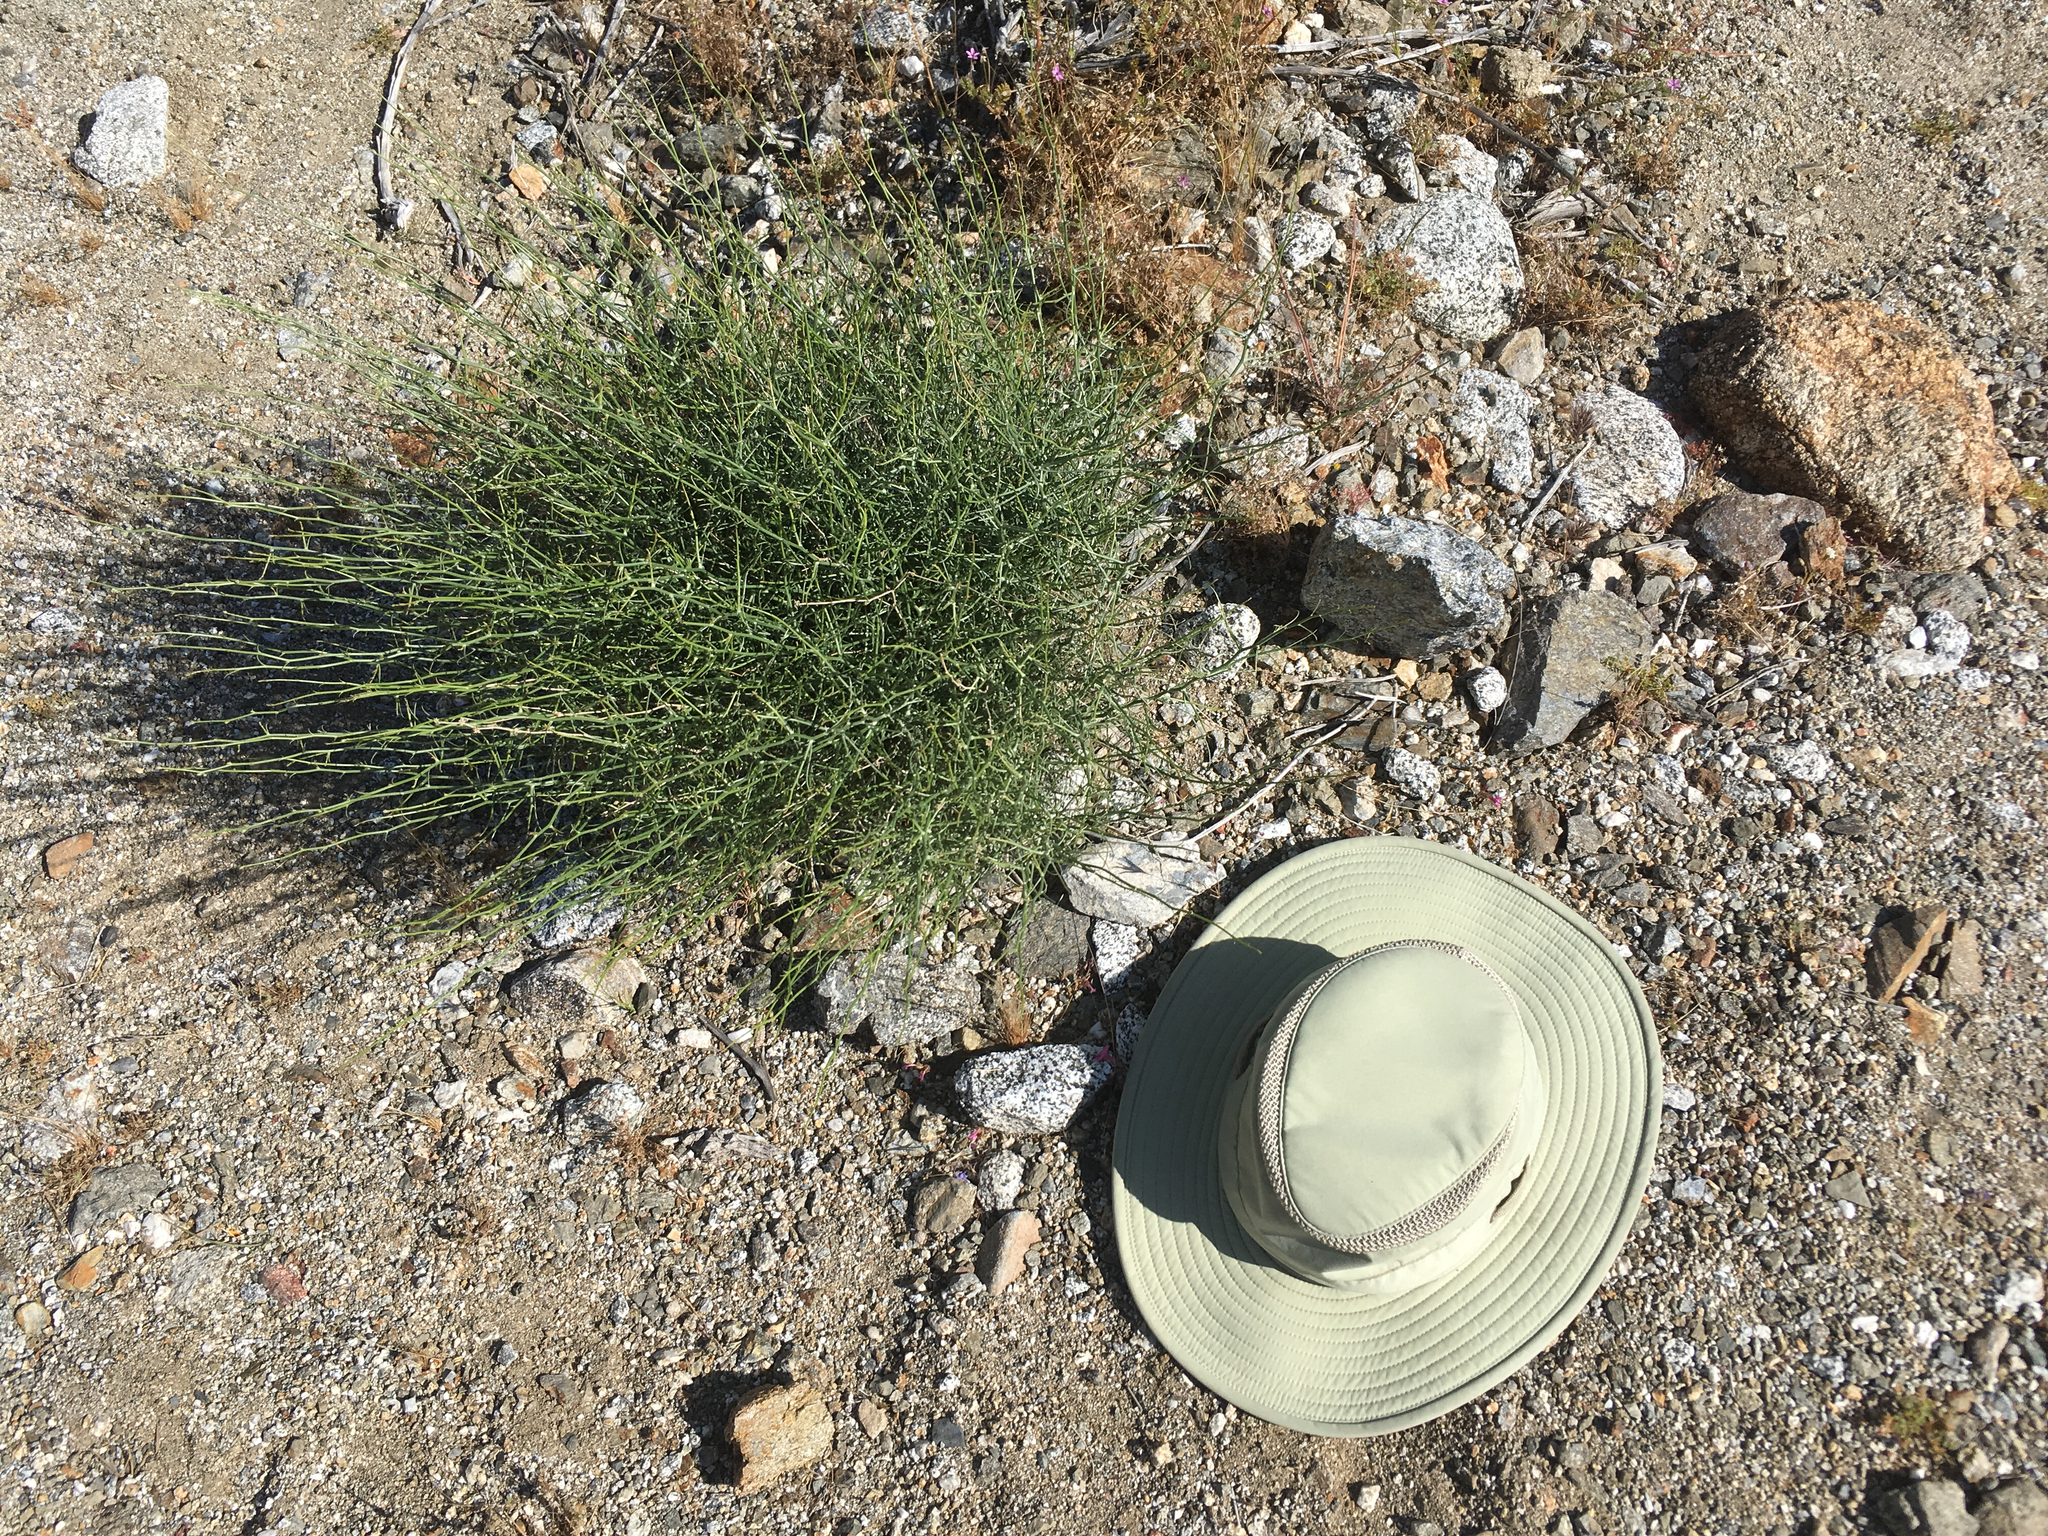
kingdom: Plantae
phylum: Tracheophyta
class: Magnoliopsida
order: Asterales
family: Asteraceae
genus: Stephanomeria
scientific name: Stephanomeria pauciflora
